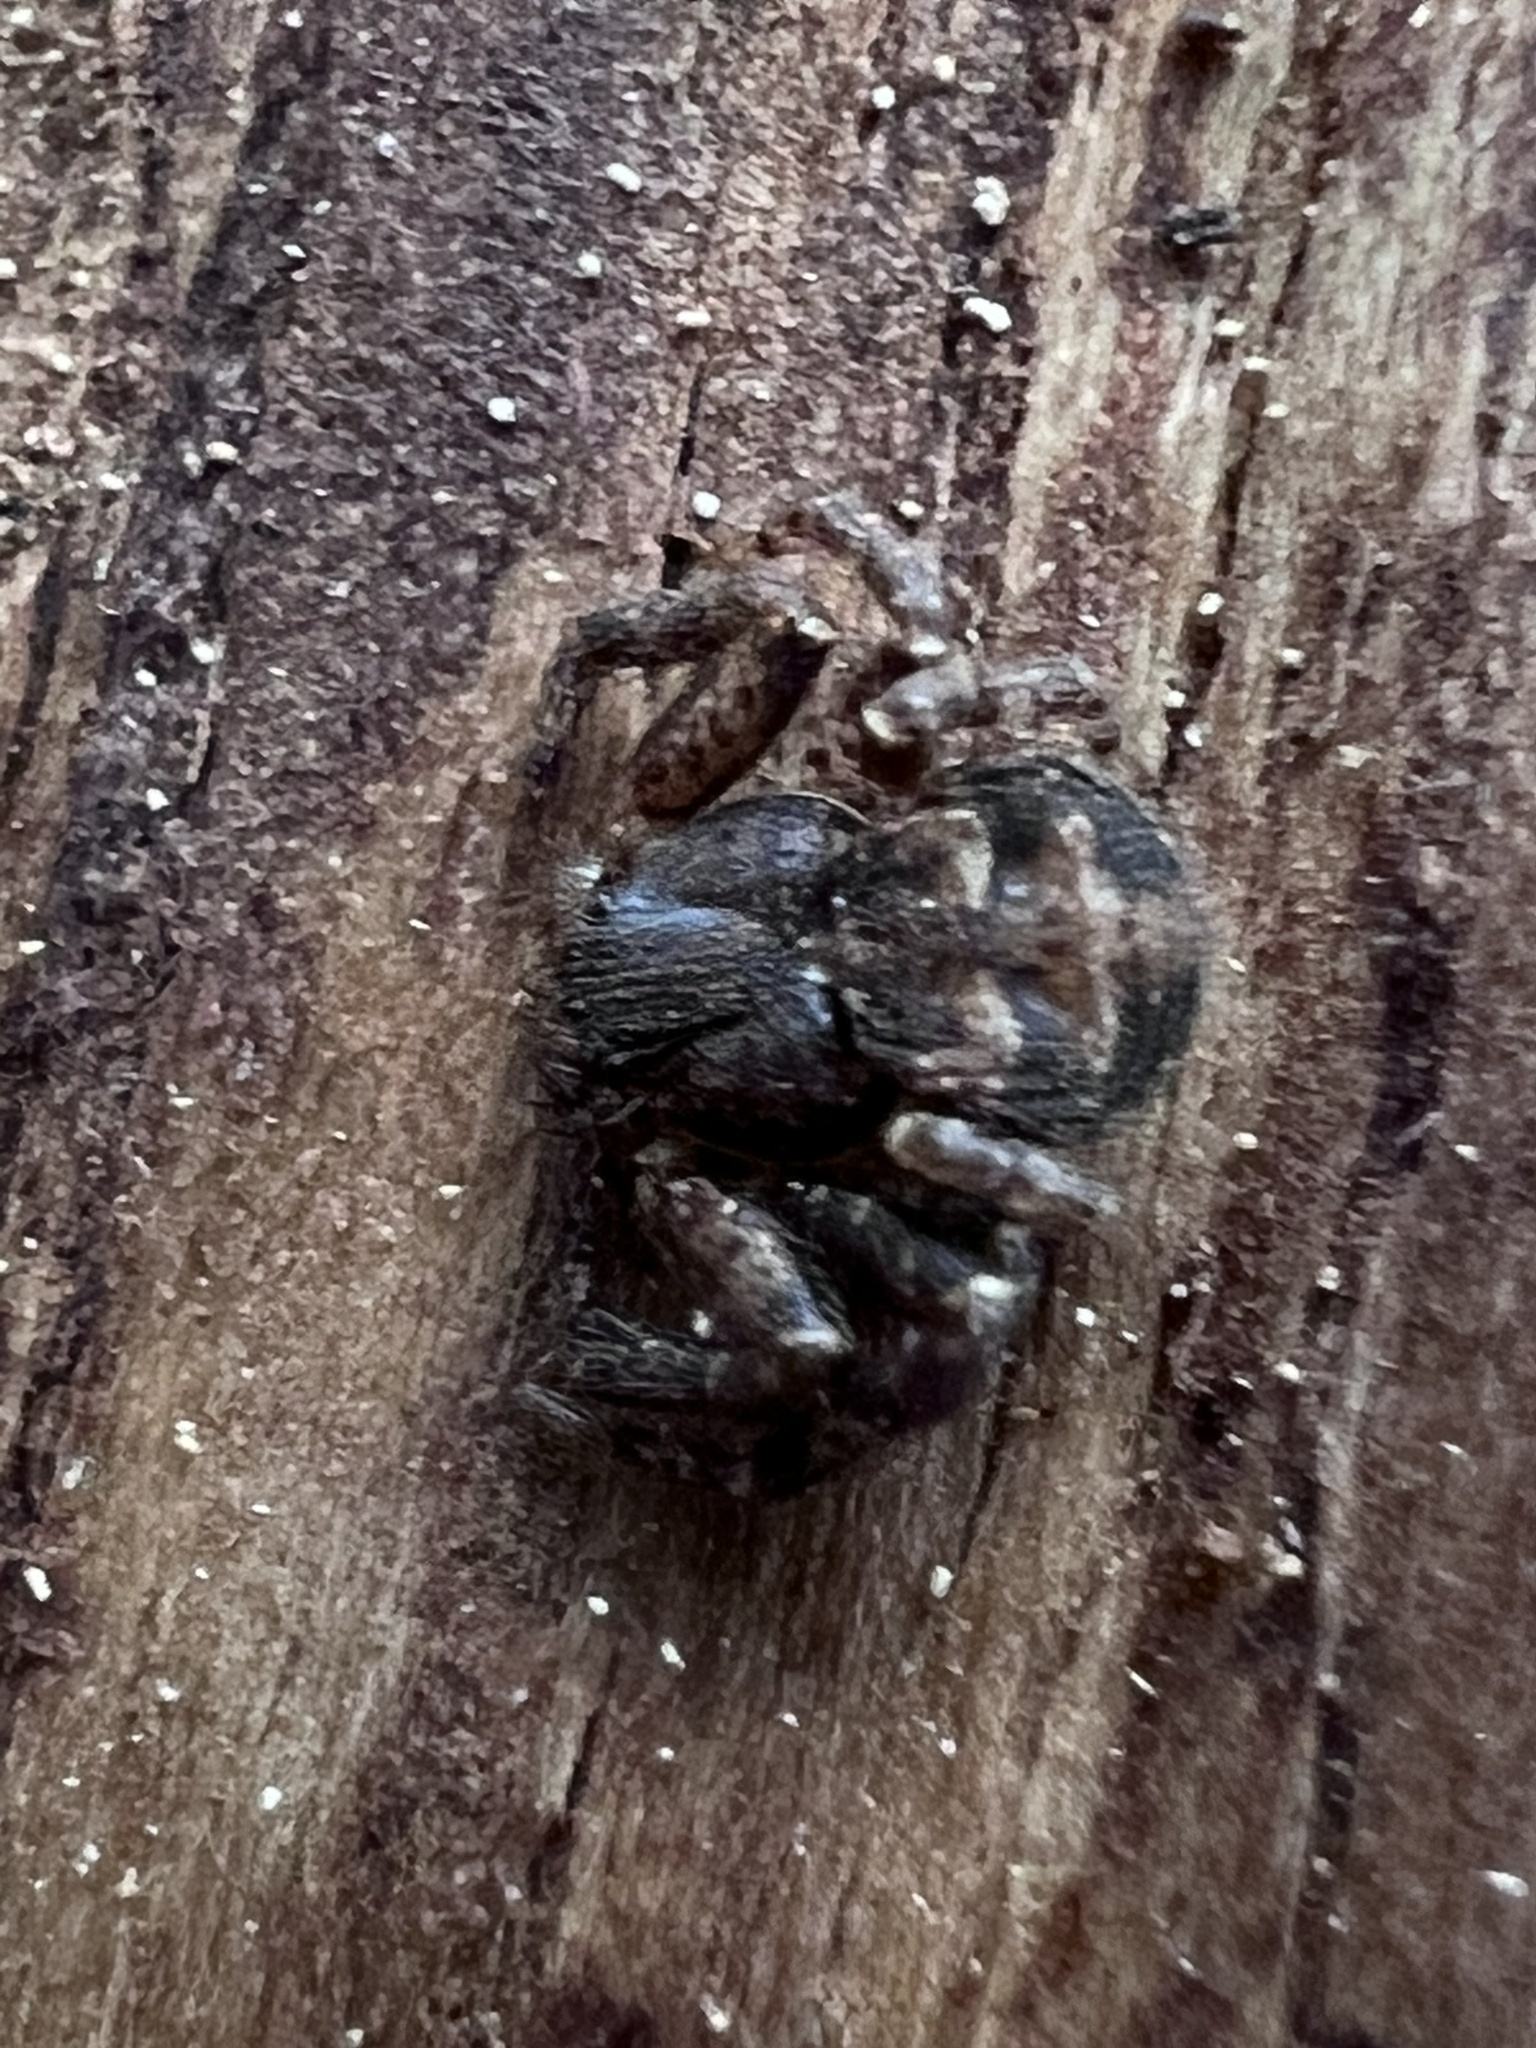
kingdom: Animalia
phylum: Arthropoda
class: Arachnida
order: Araneae
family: Thomisidae
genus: Bassaniana
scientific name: Bassaniana versicolor
